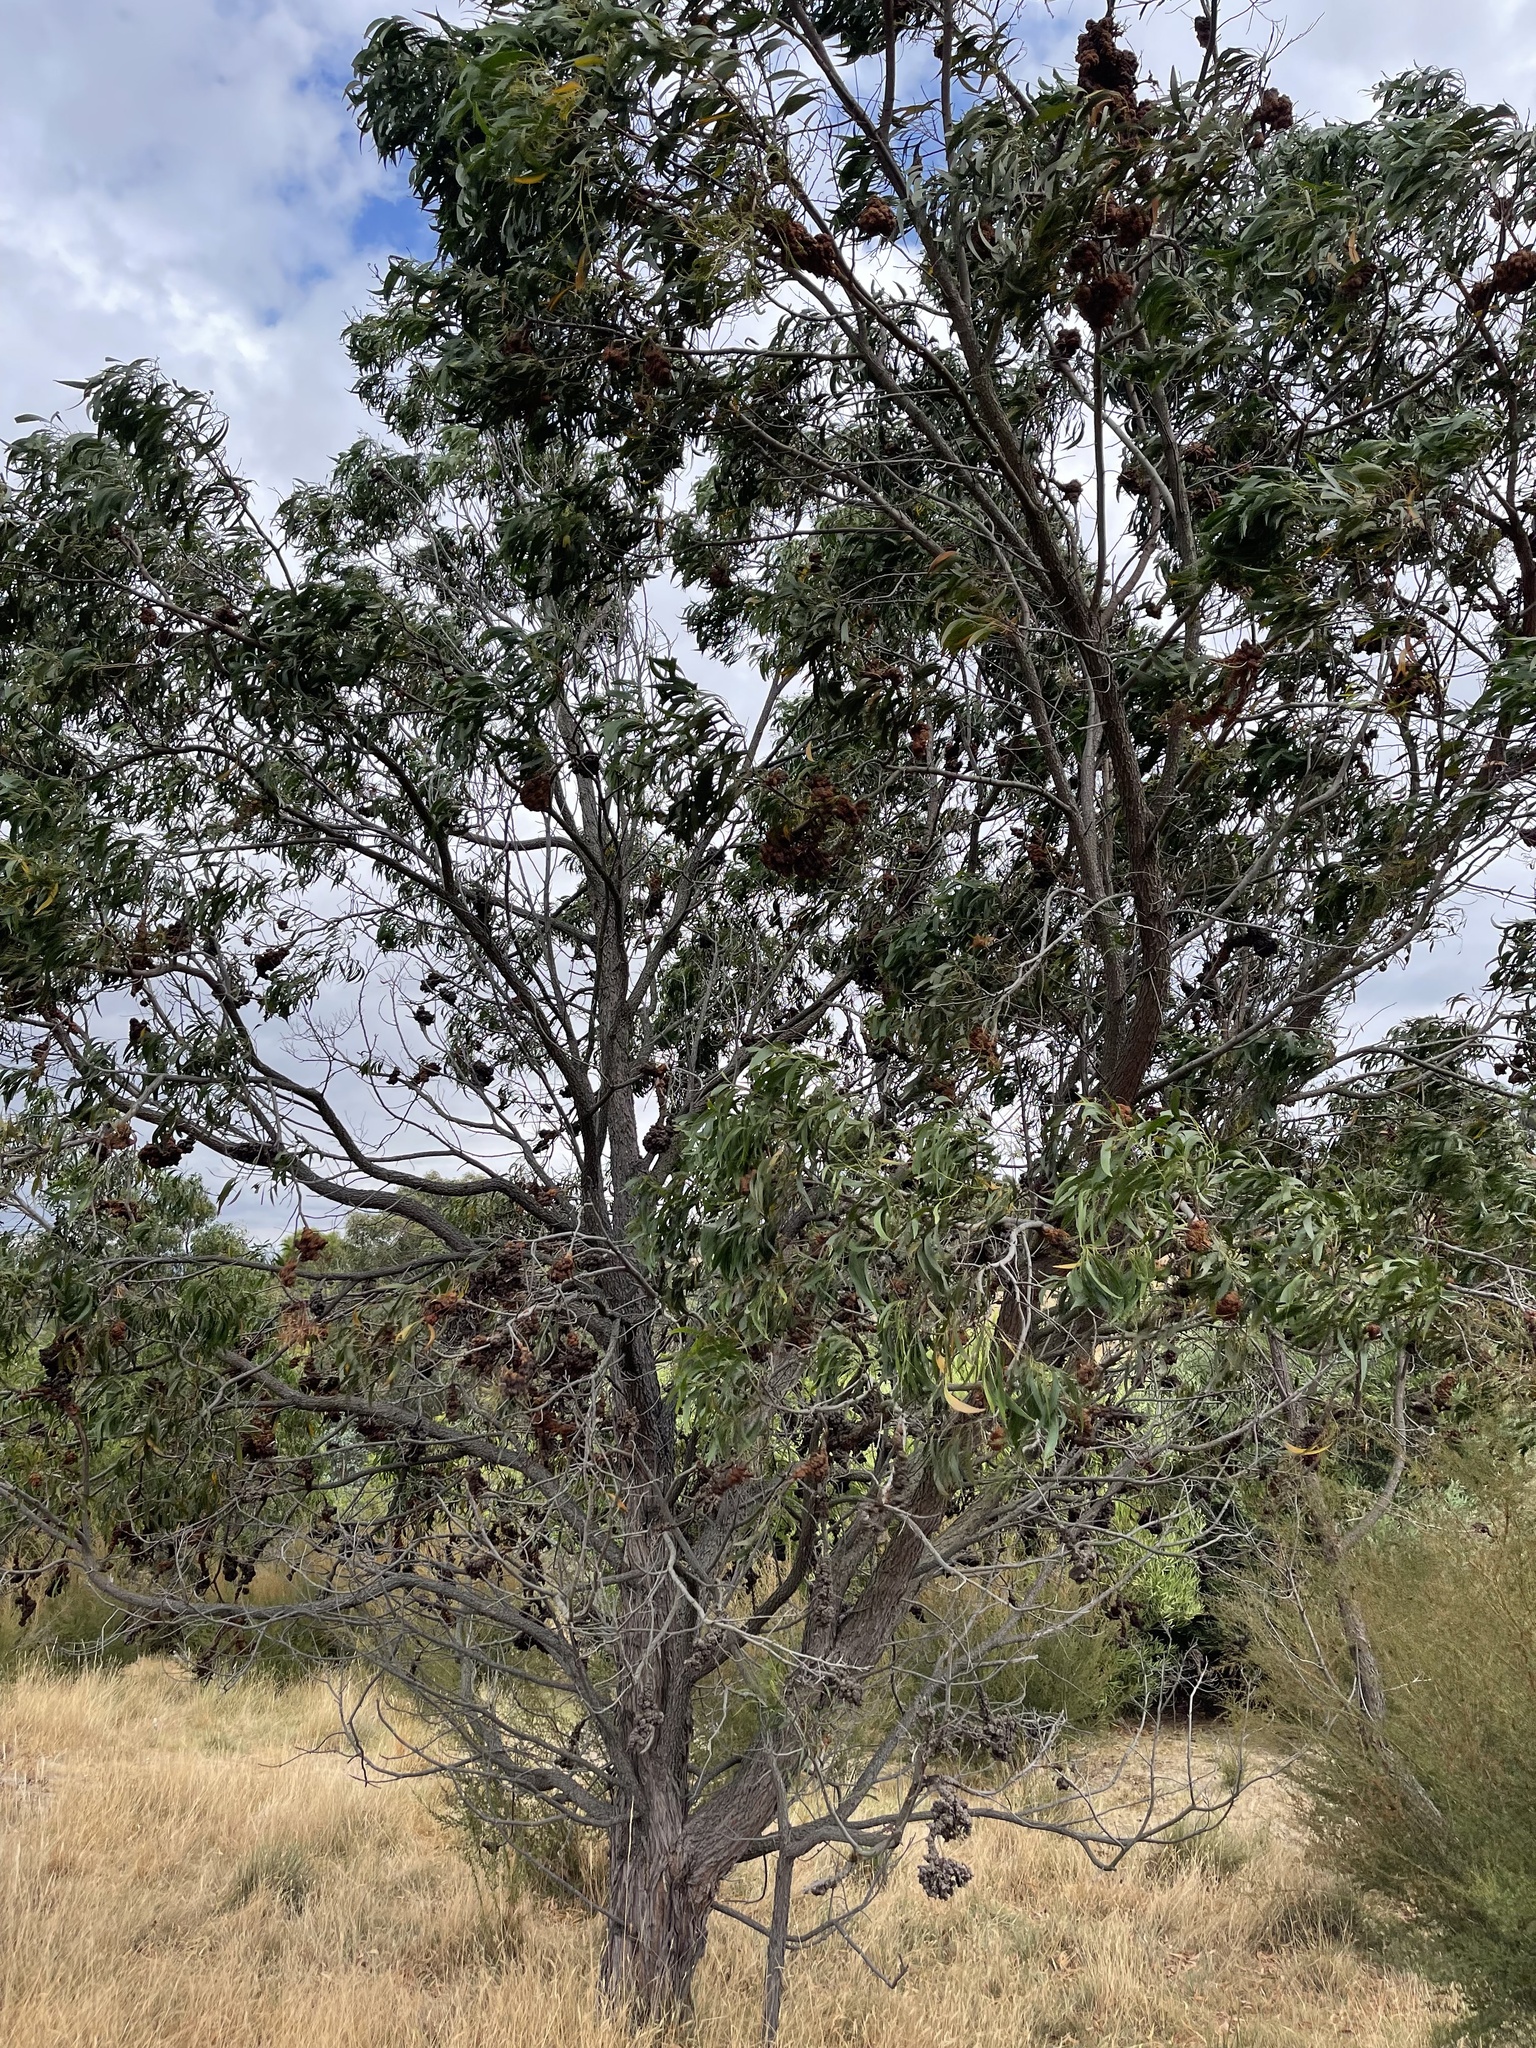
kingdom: Plantae
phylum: Tracheophyta
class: Magnoliopsida
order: Fabales
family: Fabaceae
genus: Acacia
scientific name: Acacia implexa
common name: Black wattle
